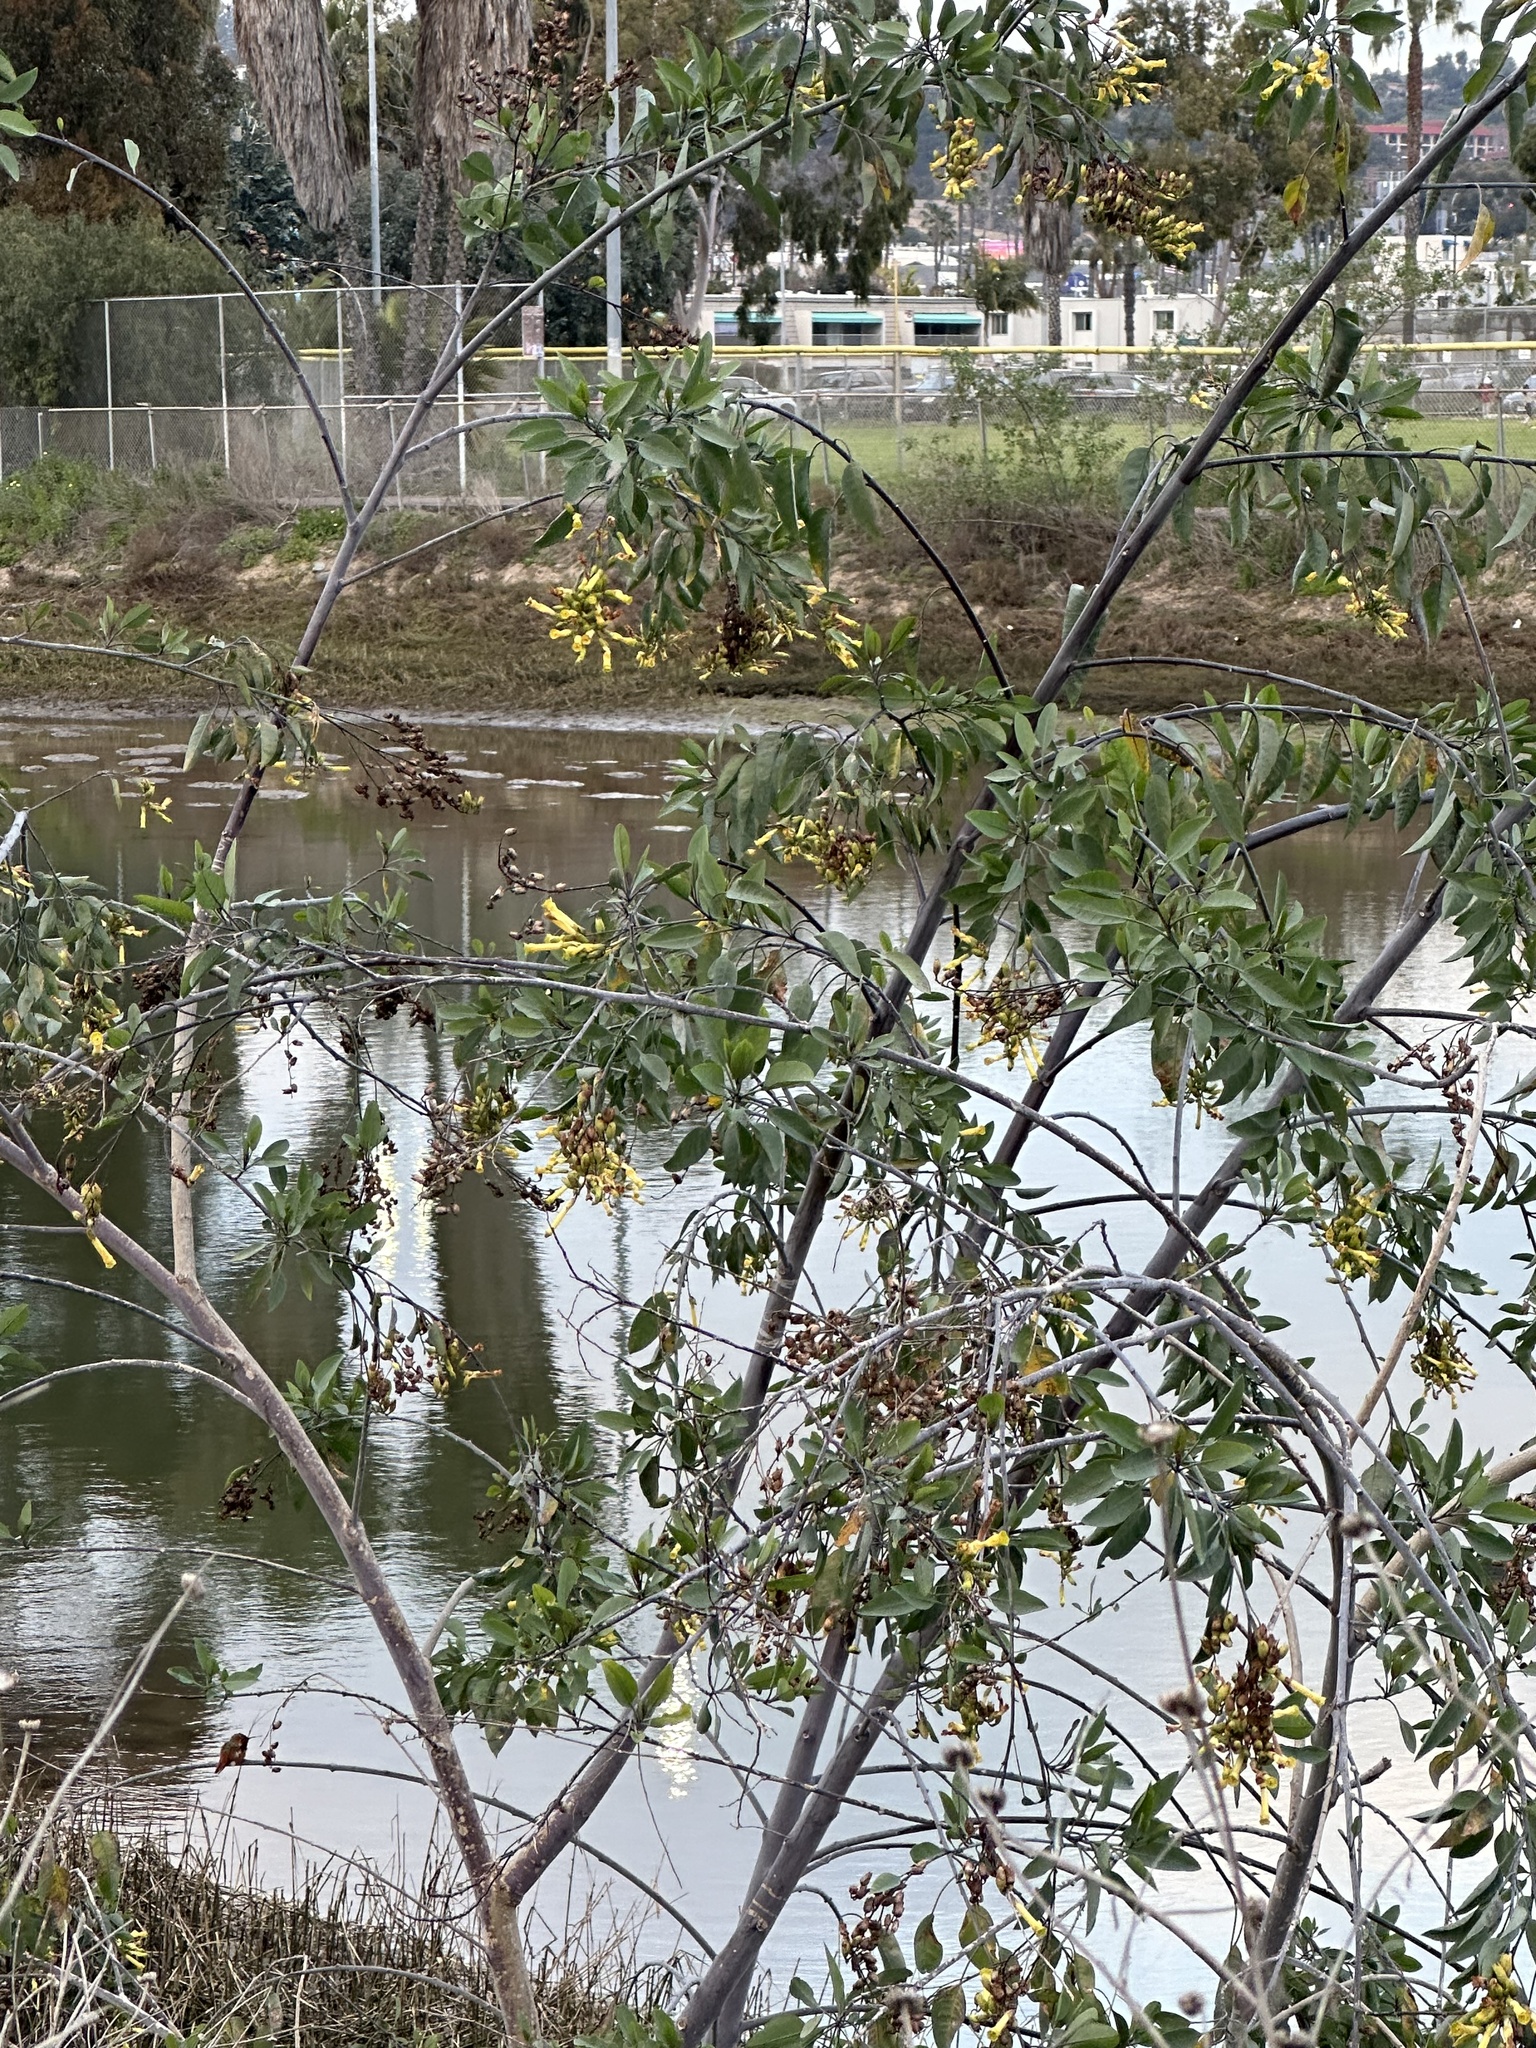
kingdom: Plantae
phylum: Tracheophyta
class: Magnoliopsida
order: Solanales
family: Solanaceae
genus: Nicotiana
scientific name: Nicotiana glauca
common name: Tree tobacco
